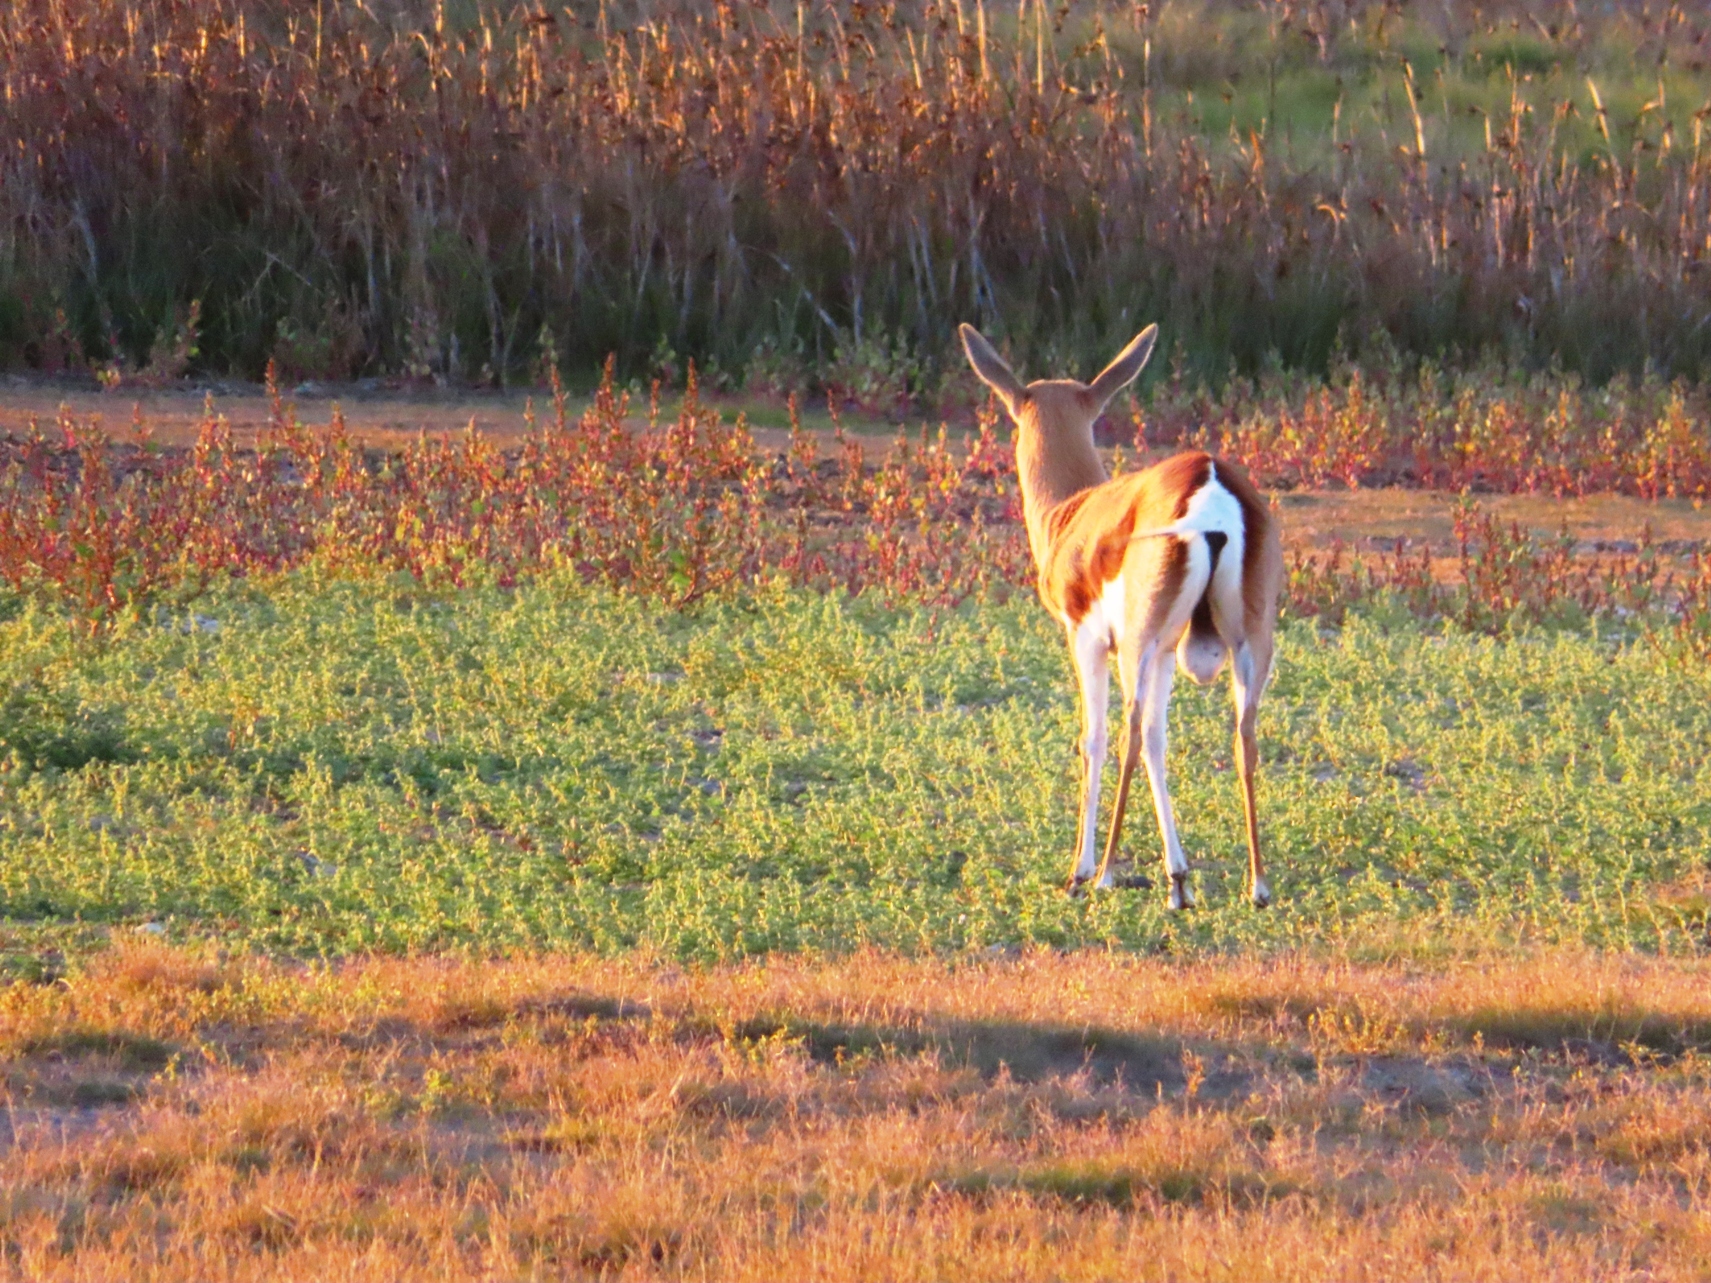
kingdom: Animalia
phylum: Chordata
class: Mammalia
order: Artiodactyla
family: Bovidae
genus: Antidorcas
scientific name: Antidorcas marsupialis
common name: Springbok
